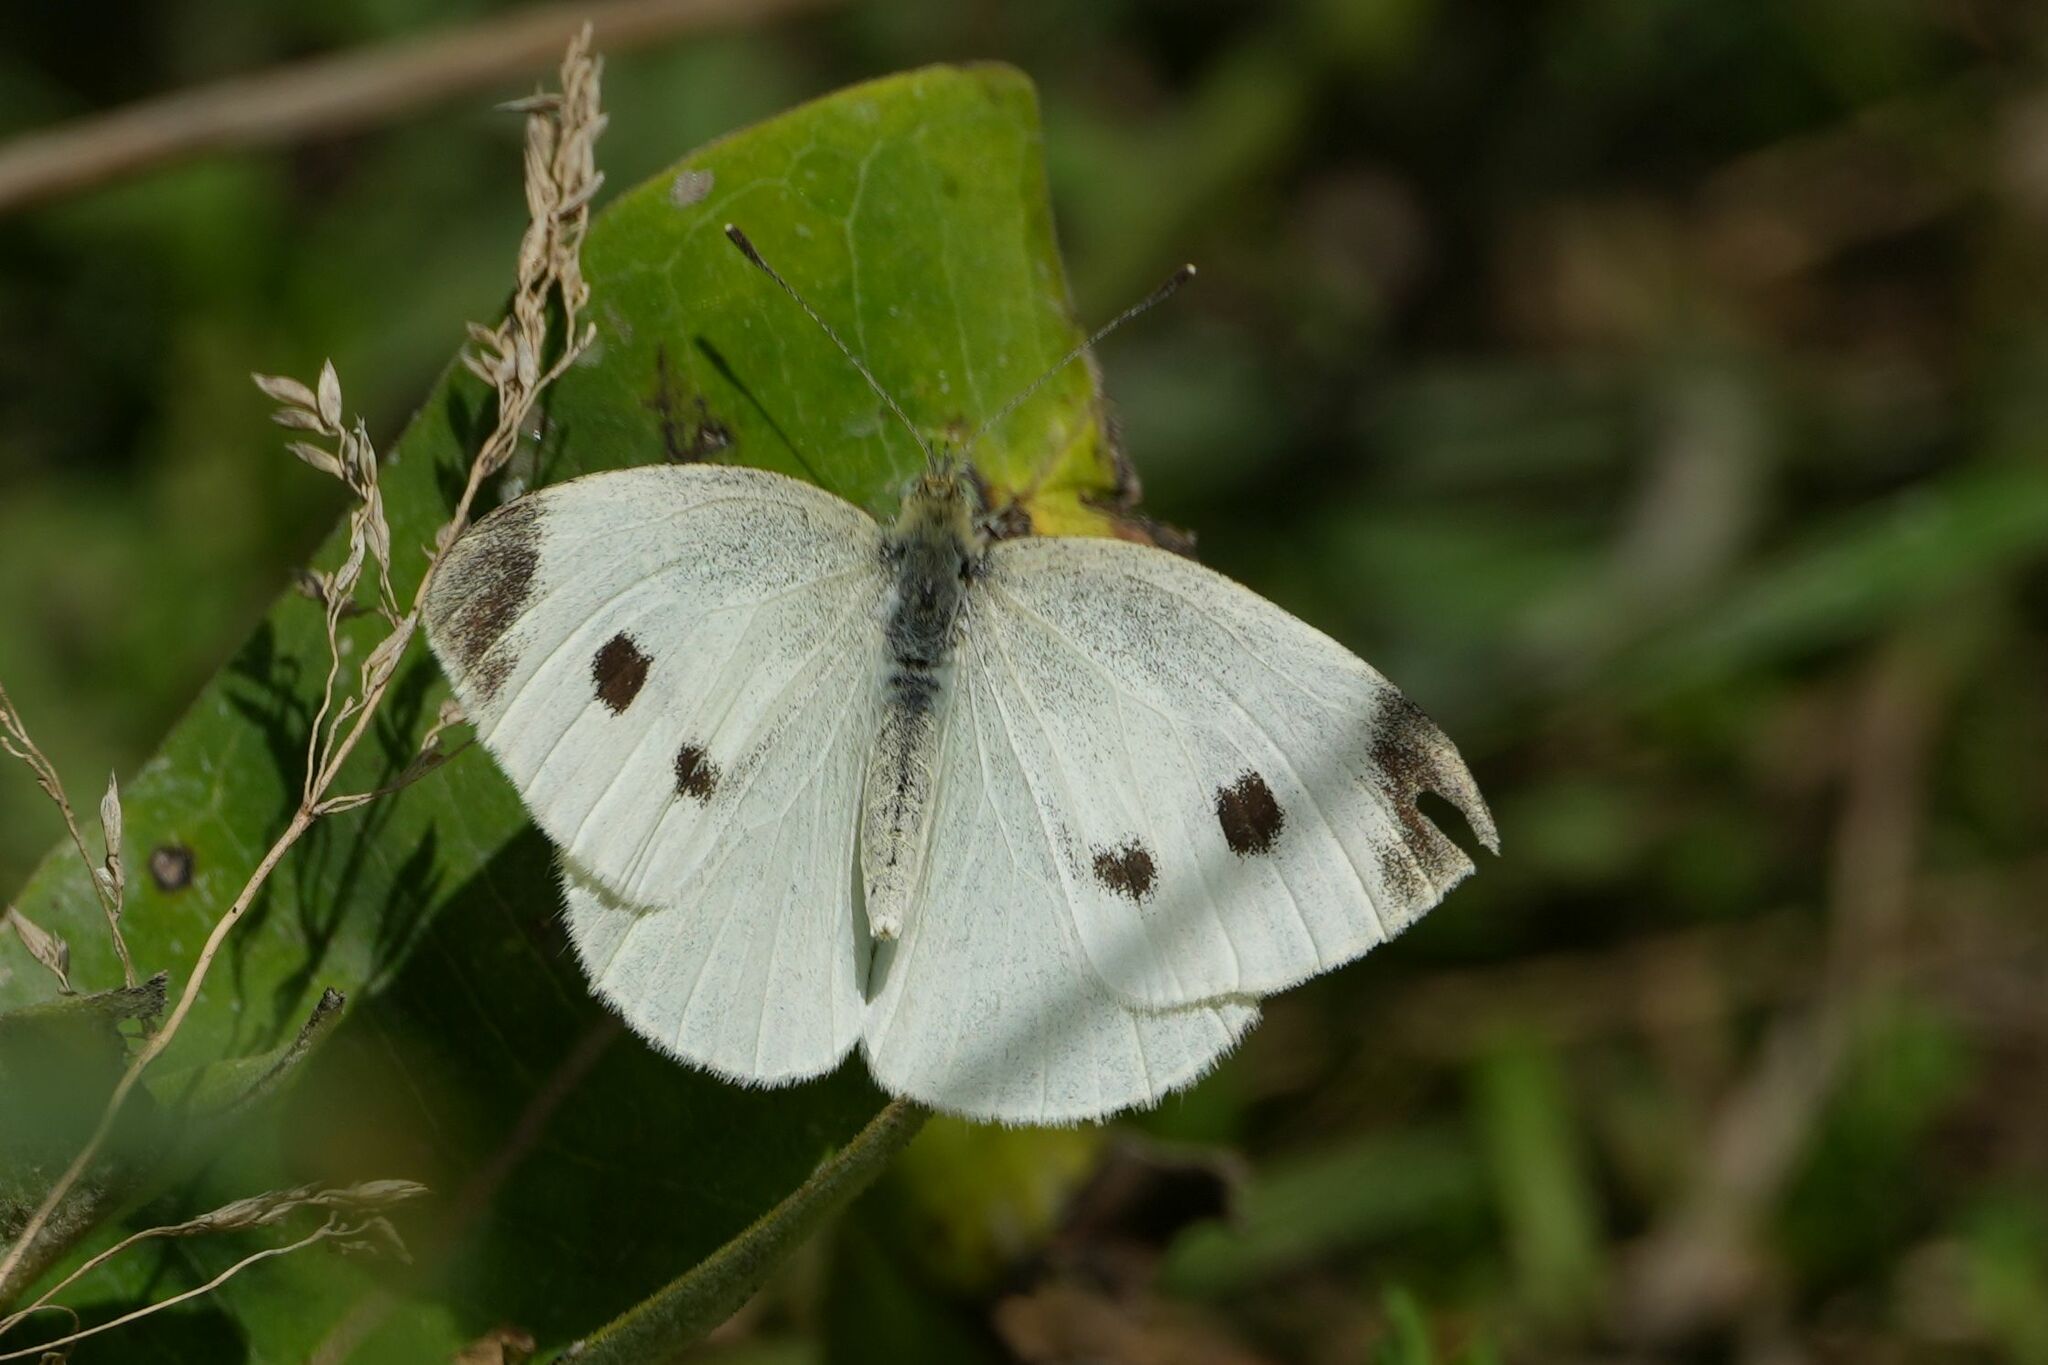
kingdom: Animalia
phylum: Arthropoda
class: Insecta
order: Lepidoptera
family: Pieridae
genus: Pieris
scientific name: Pieris rapae
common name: Small white
